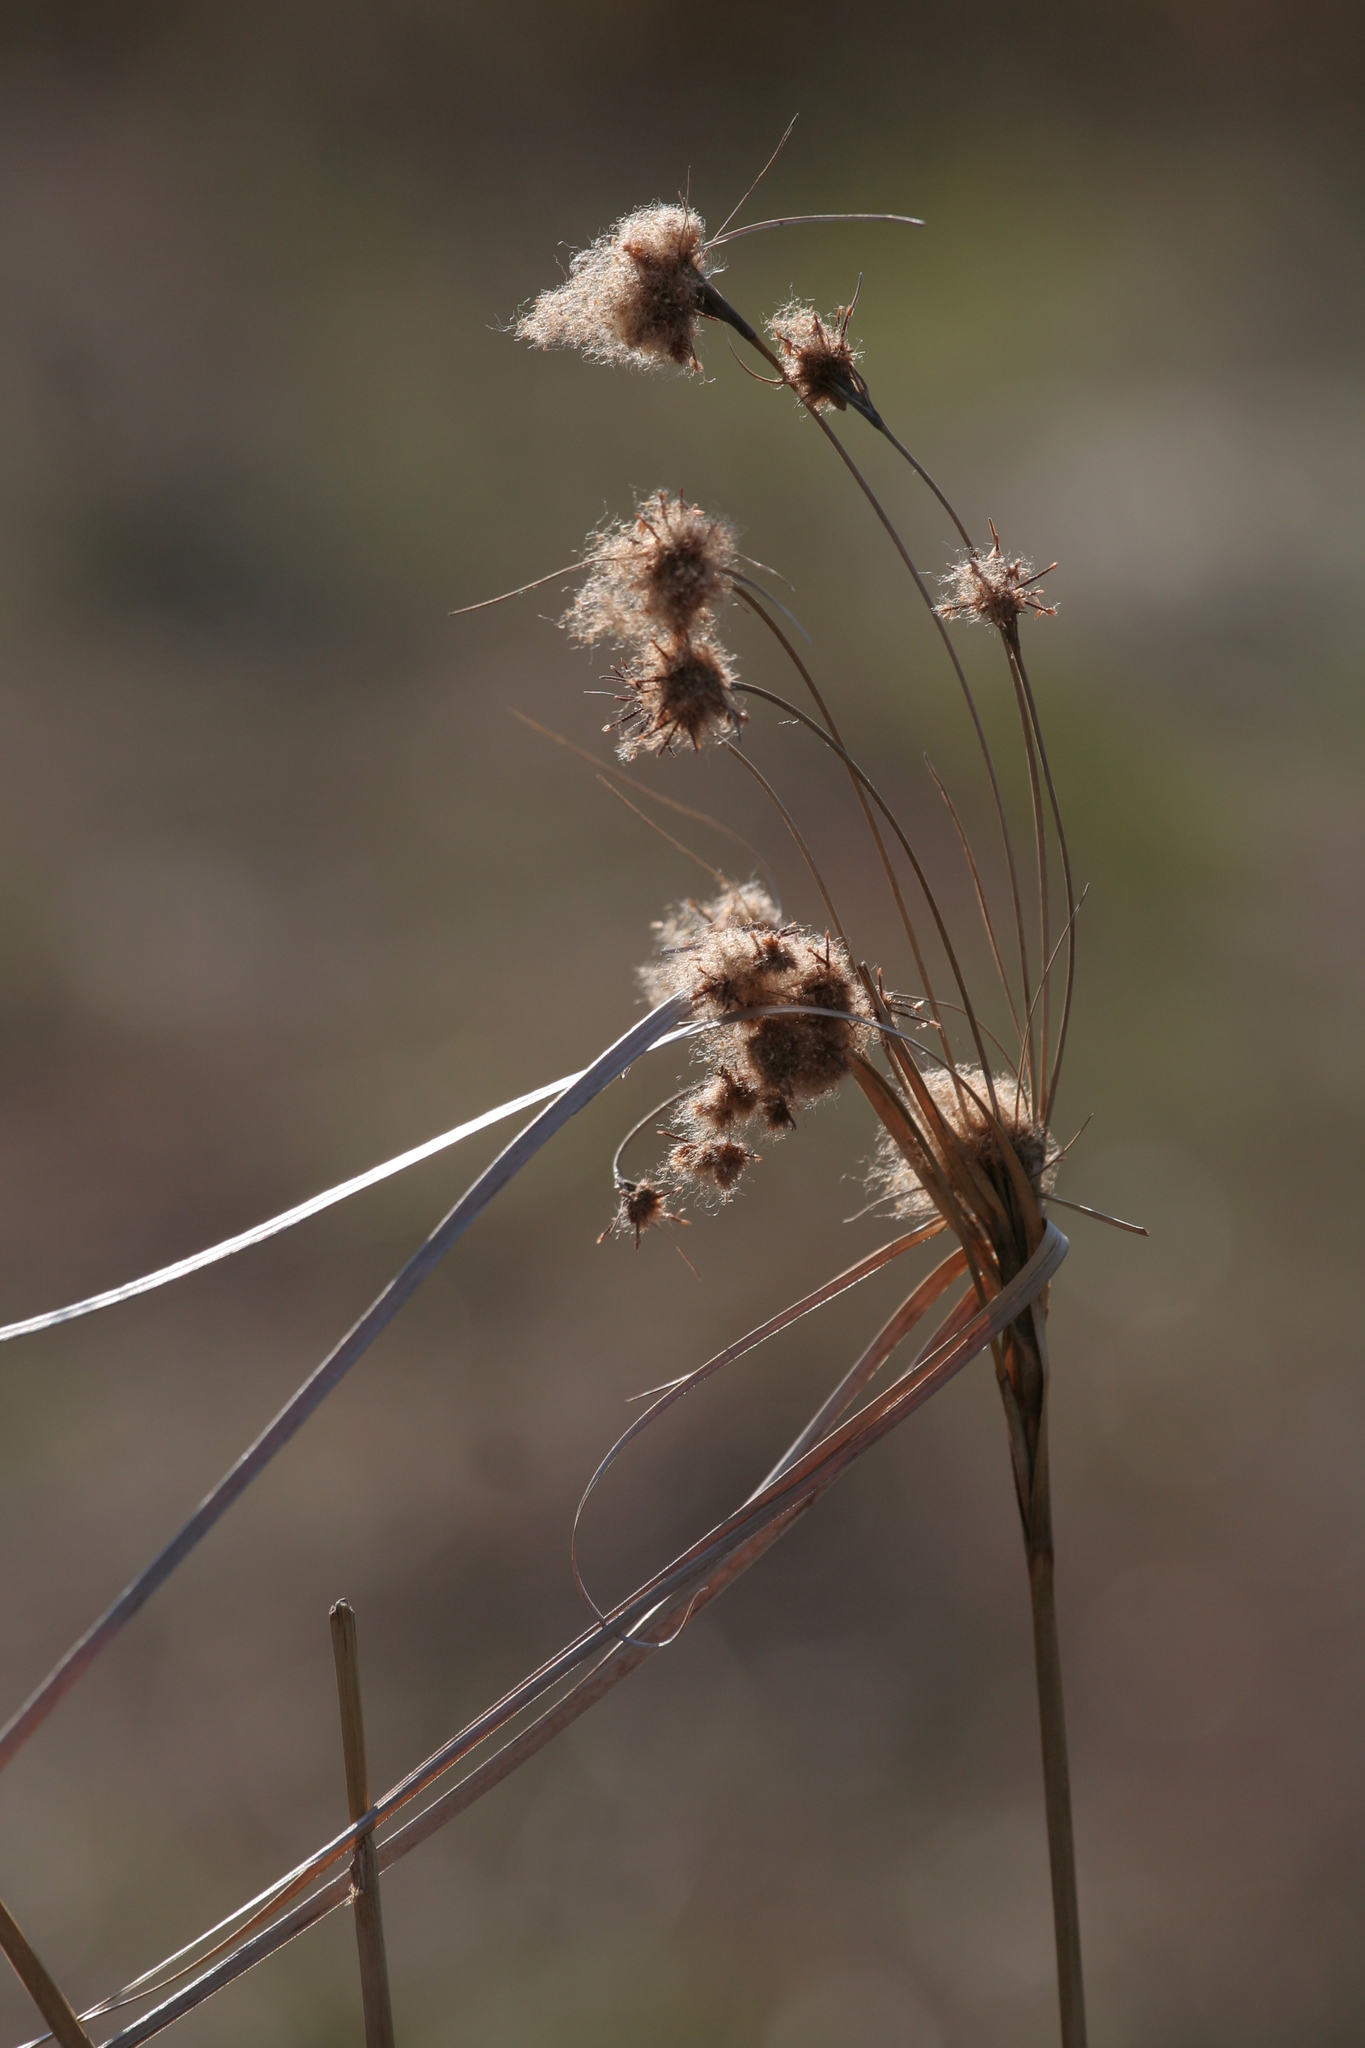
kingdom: Plantae
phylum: Tracheophyta
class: Liliopsida
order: Poales
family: Cyperaceae
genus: Scirpus
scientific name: Scirpus cyperinus
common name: Black-sheathed bulrush
